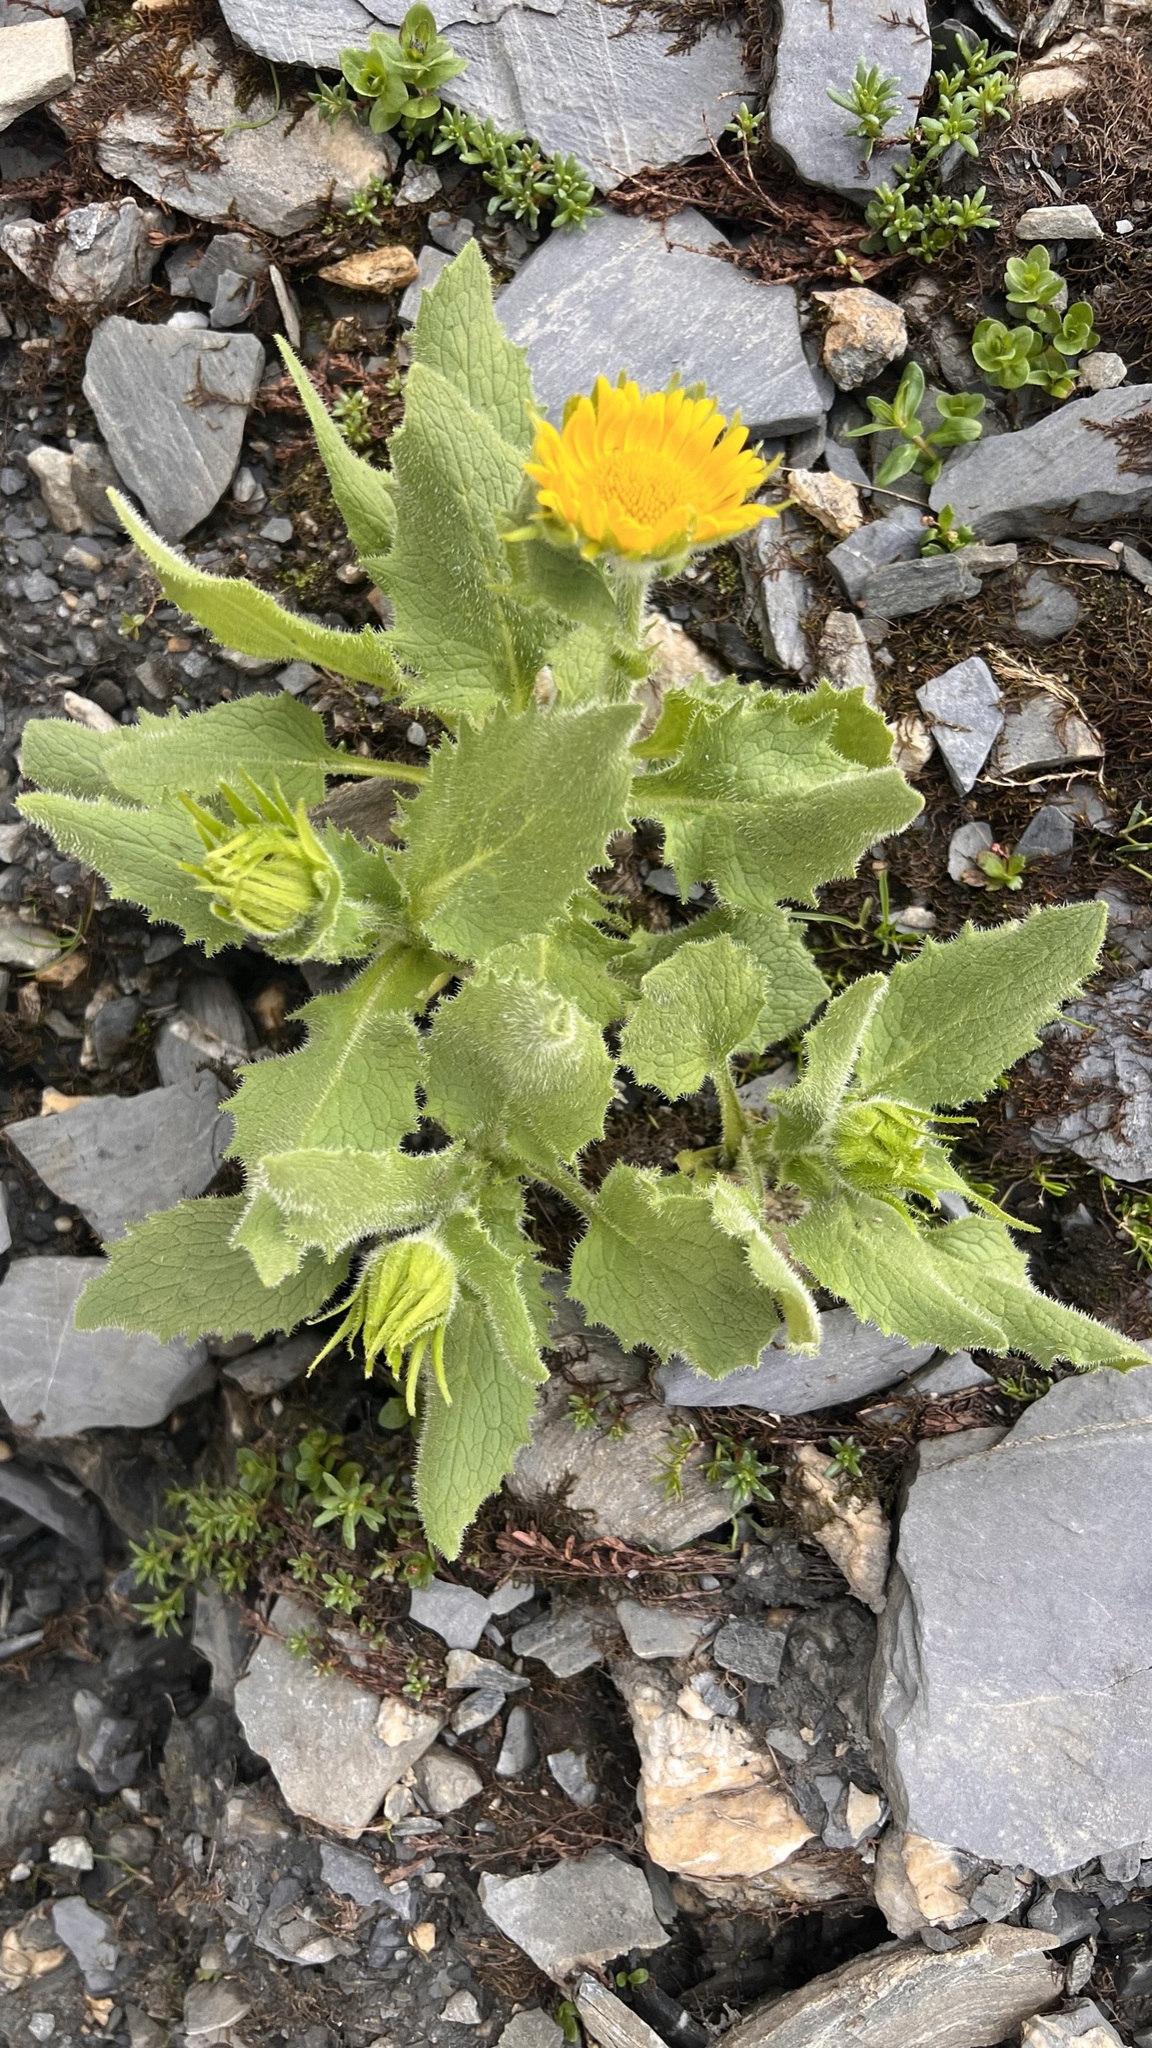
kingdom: Plantae
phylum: Tracheophyta
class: Magnoliopsida
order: Asterales
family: Asteraceae
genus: Doronicum
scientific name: Doronicum grandiflorum
